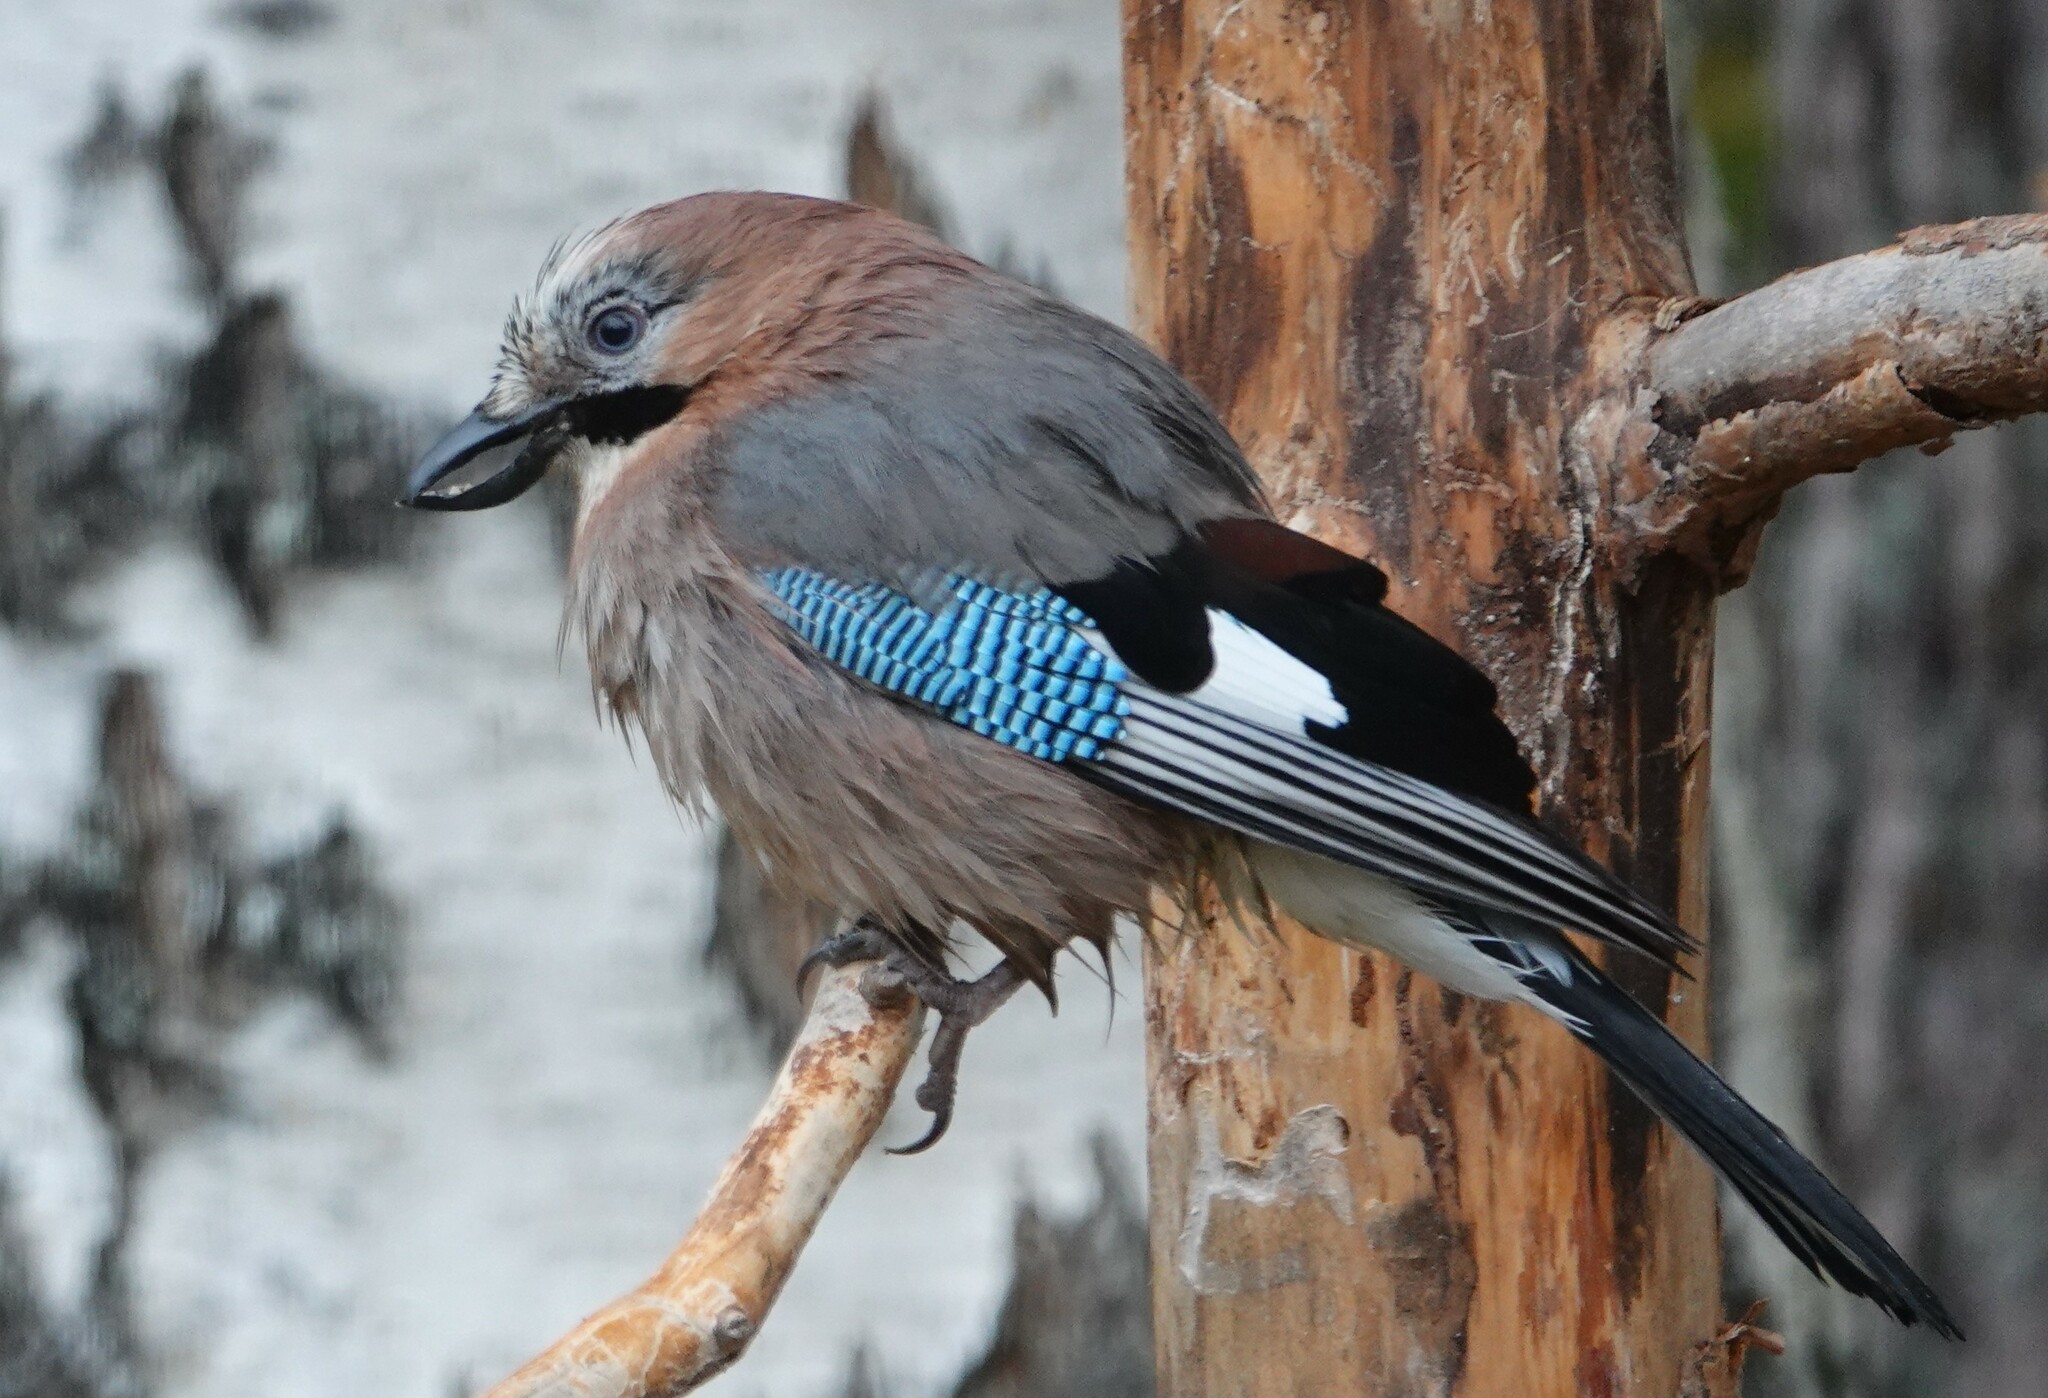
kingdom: Animalia
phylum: Chordata
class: Aves
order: Passeriformes
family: Corvidae
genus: Garrulus
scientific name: Garrulus glandarius
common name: Eurasian jay
